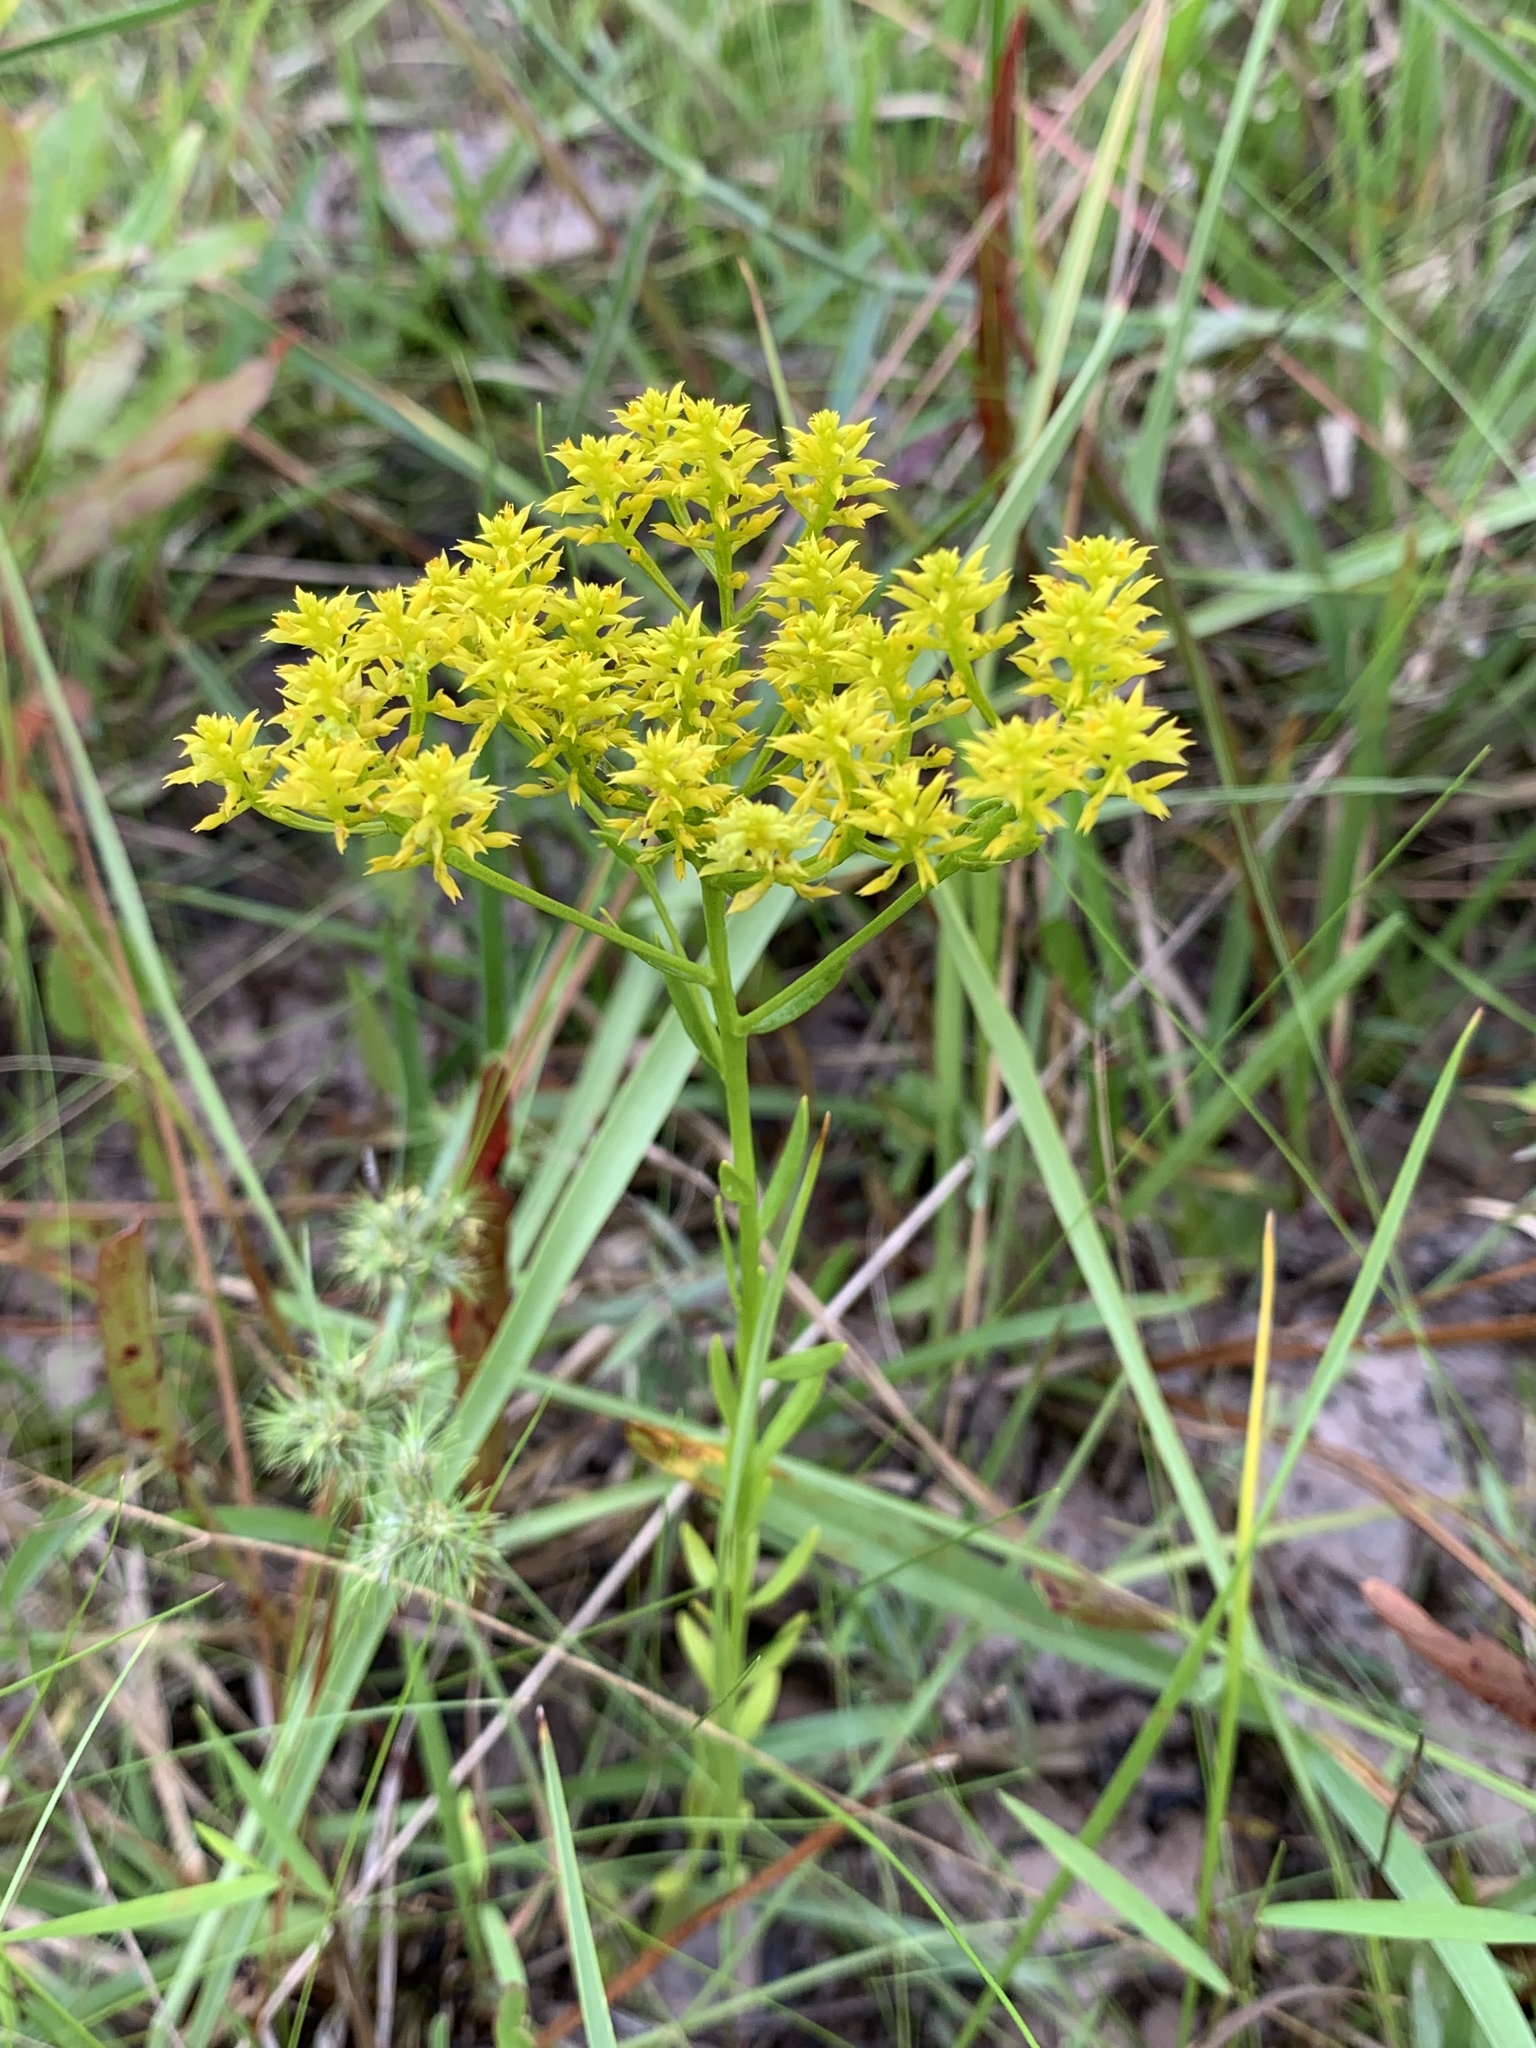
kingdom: Plantae
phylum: Tracheophyta
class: Magnoliopsida
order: Fabales
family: Polygalaceae
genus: Polygala
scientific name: Polygala ramosa
